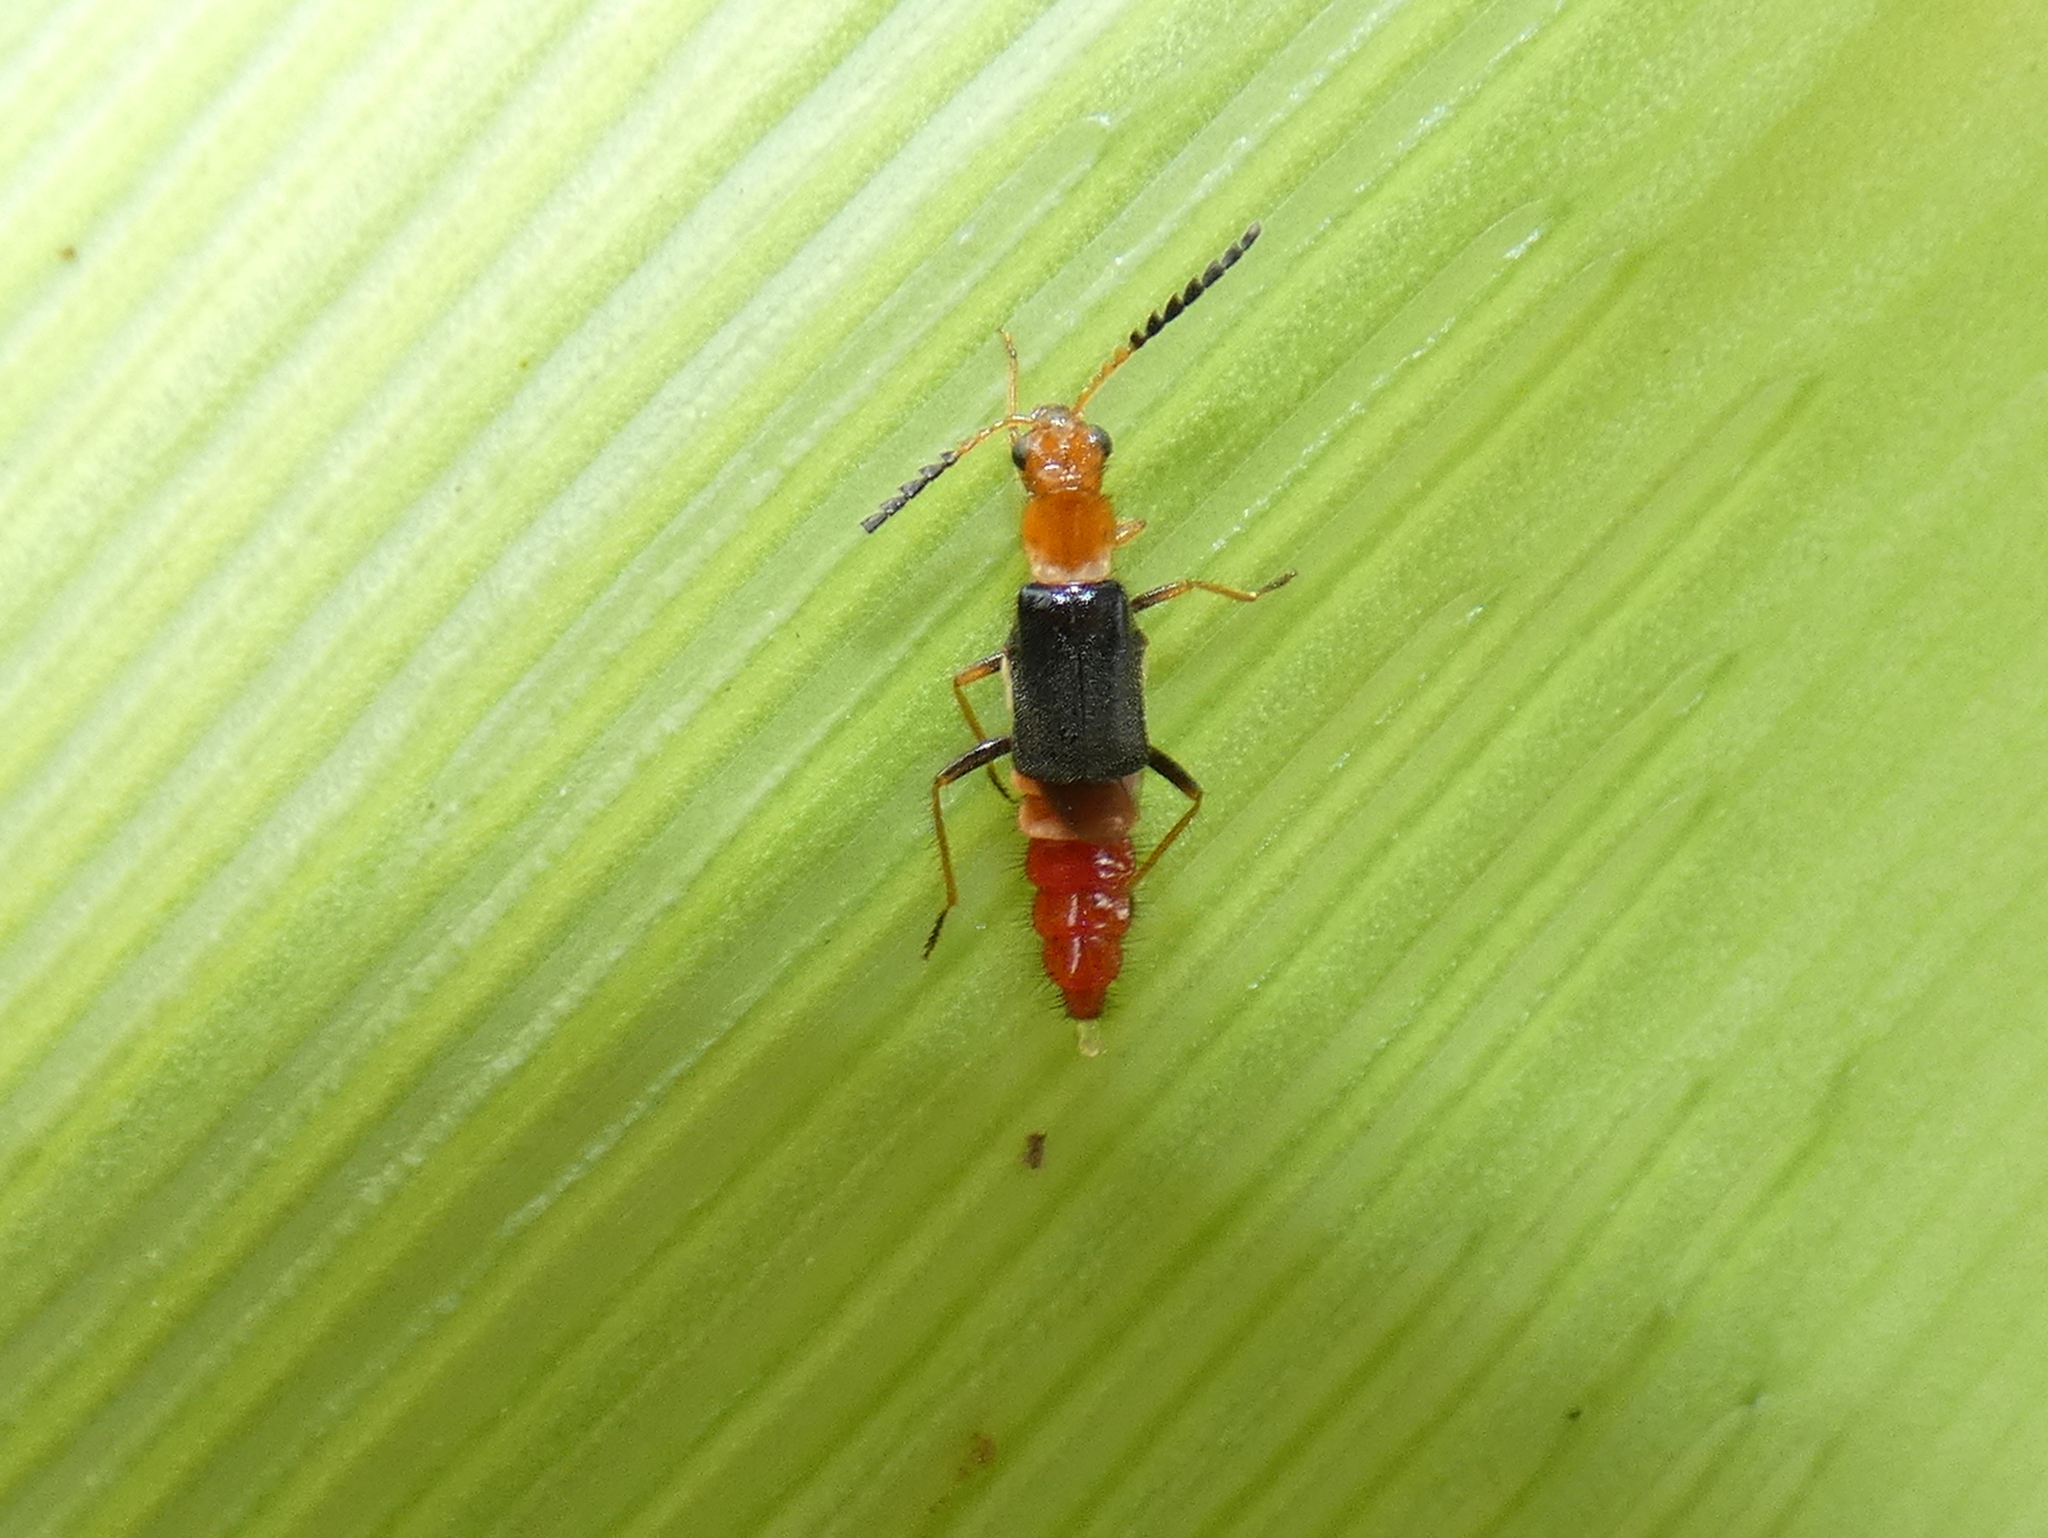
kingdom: Animalia
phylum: Arthropoda
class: Insecta
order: Coleoptera
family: Melyridae
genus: Carphurus
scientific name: Carphurus
